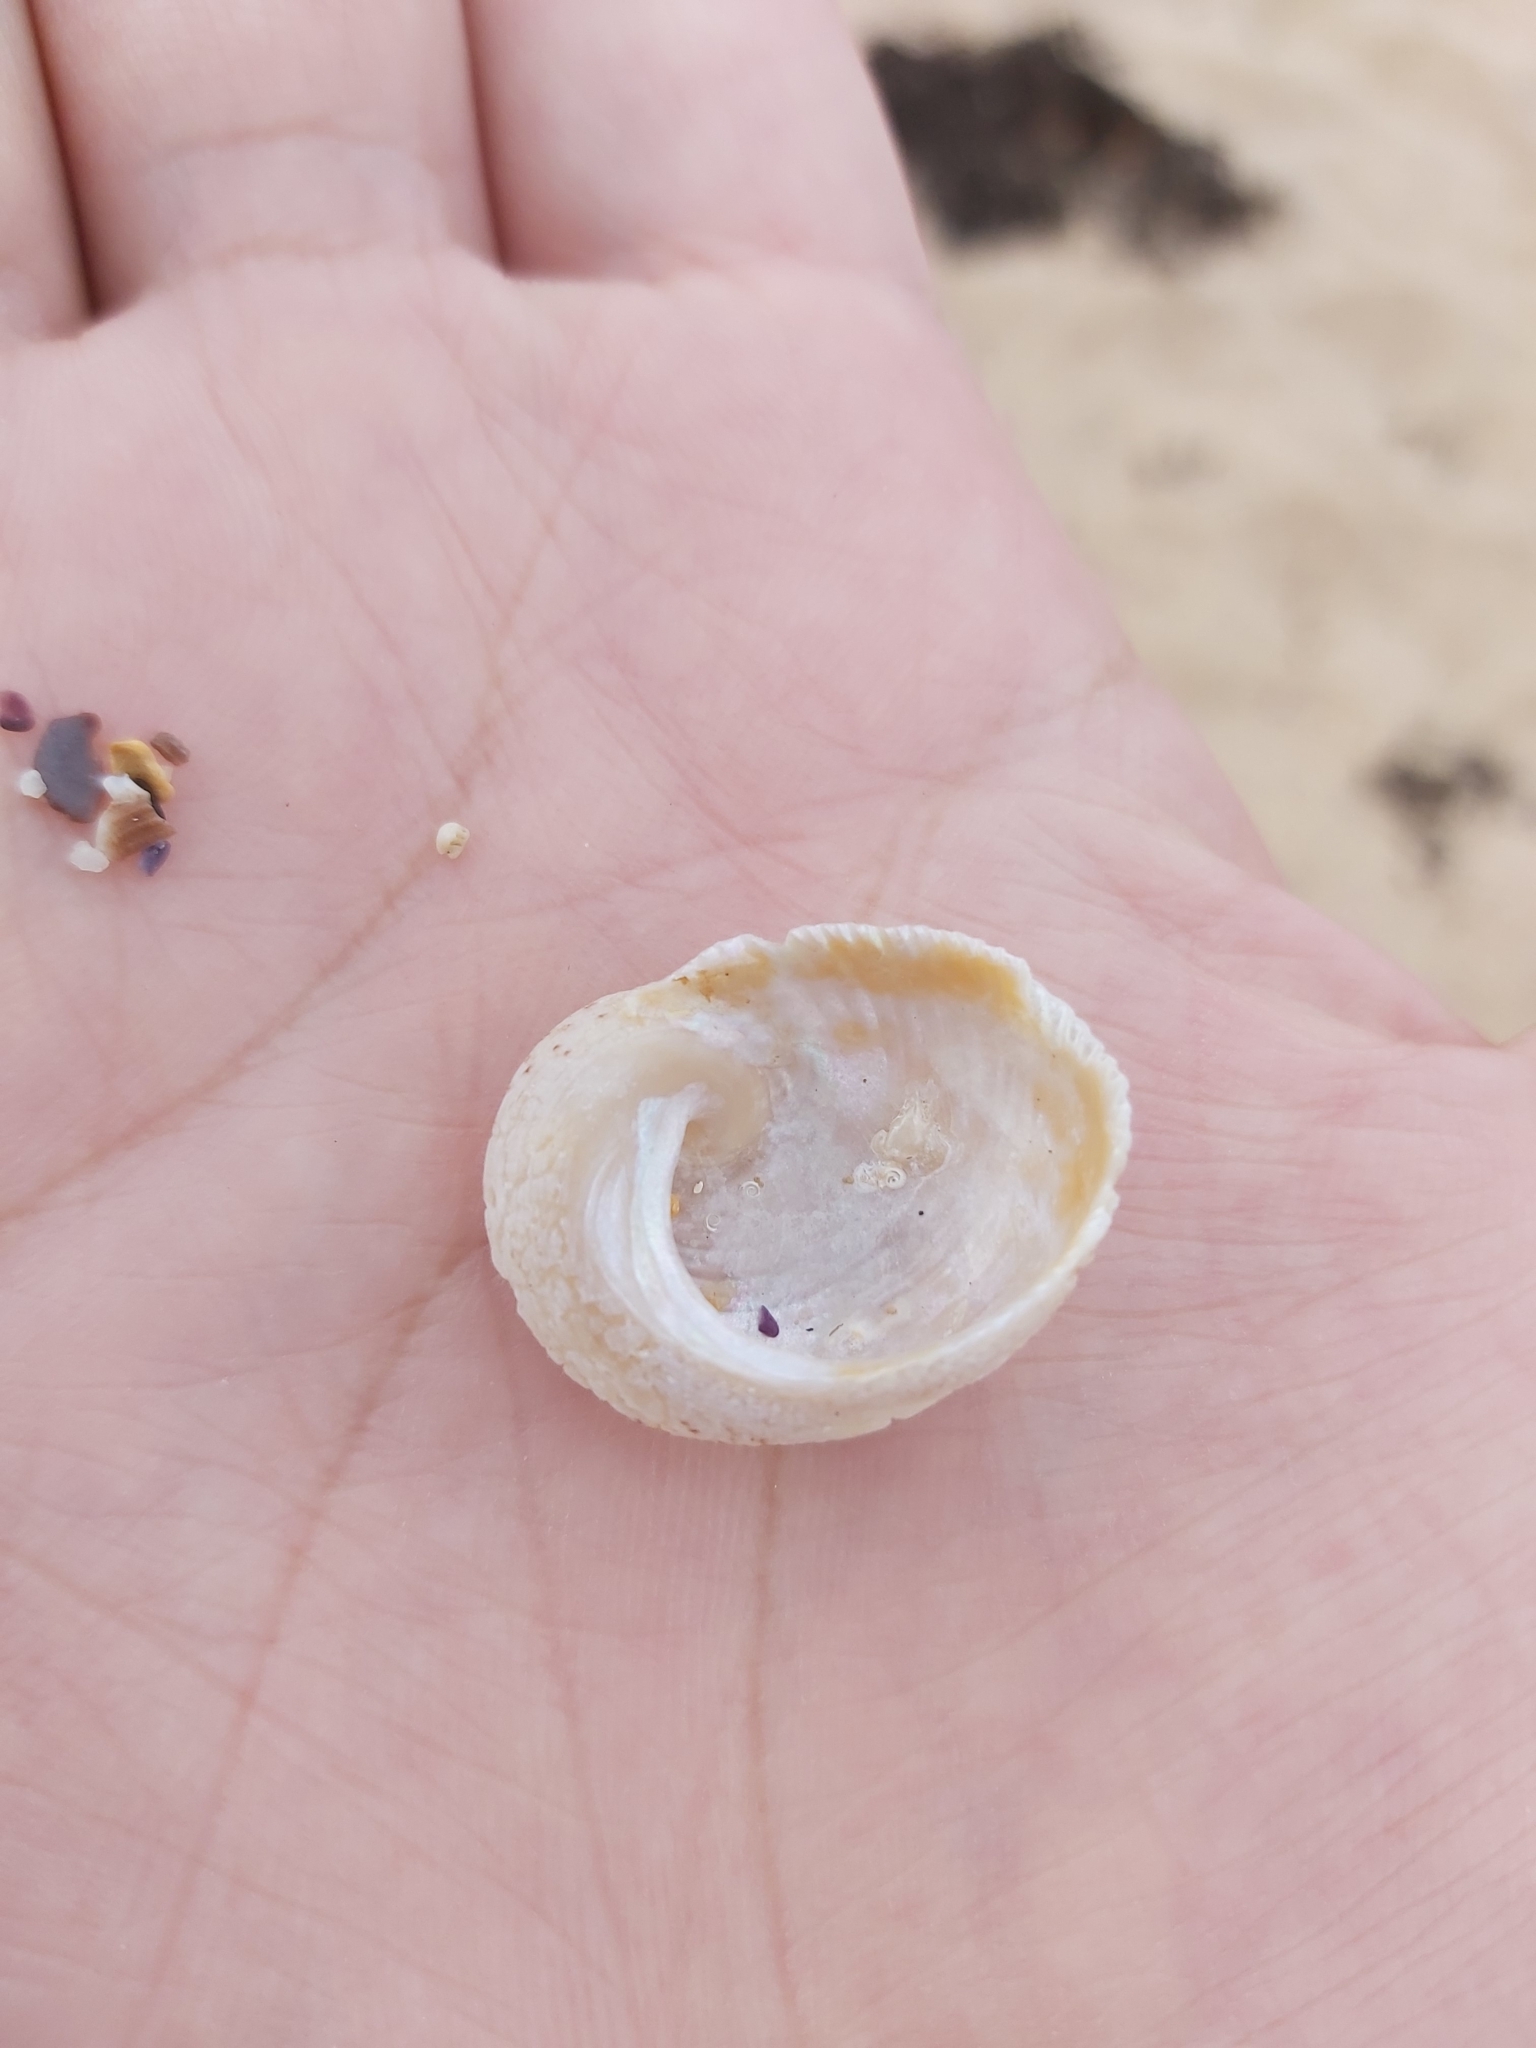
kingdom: Animalia
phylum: Mollusca
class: Gastropoda
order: Seguenziida
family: Chilodontaidae
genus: Granata
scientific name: Granata imbricata
